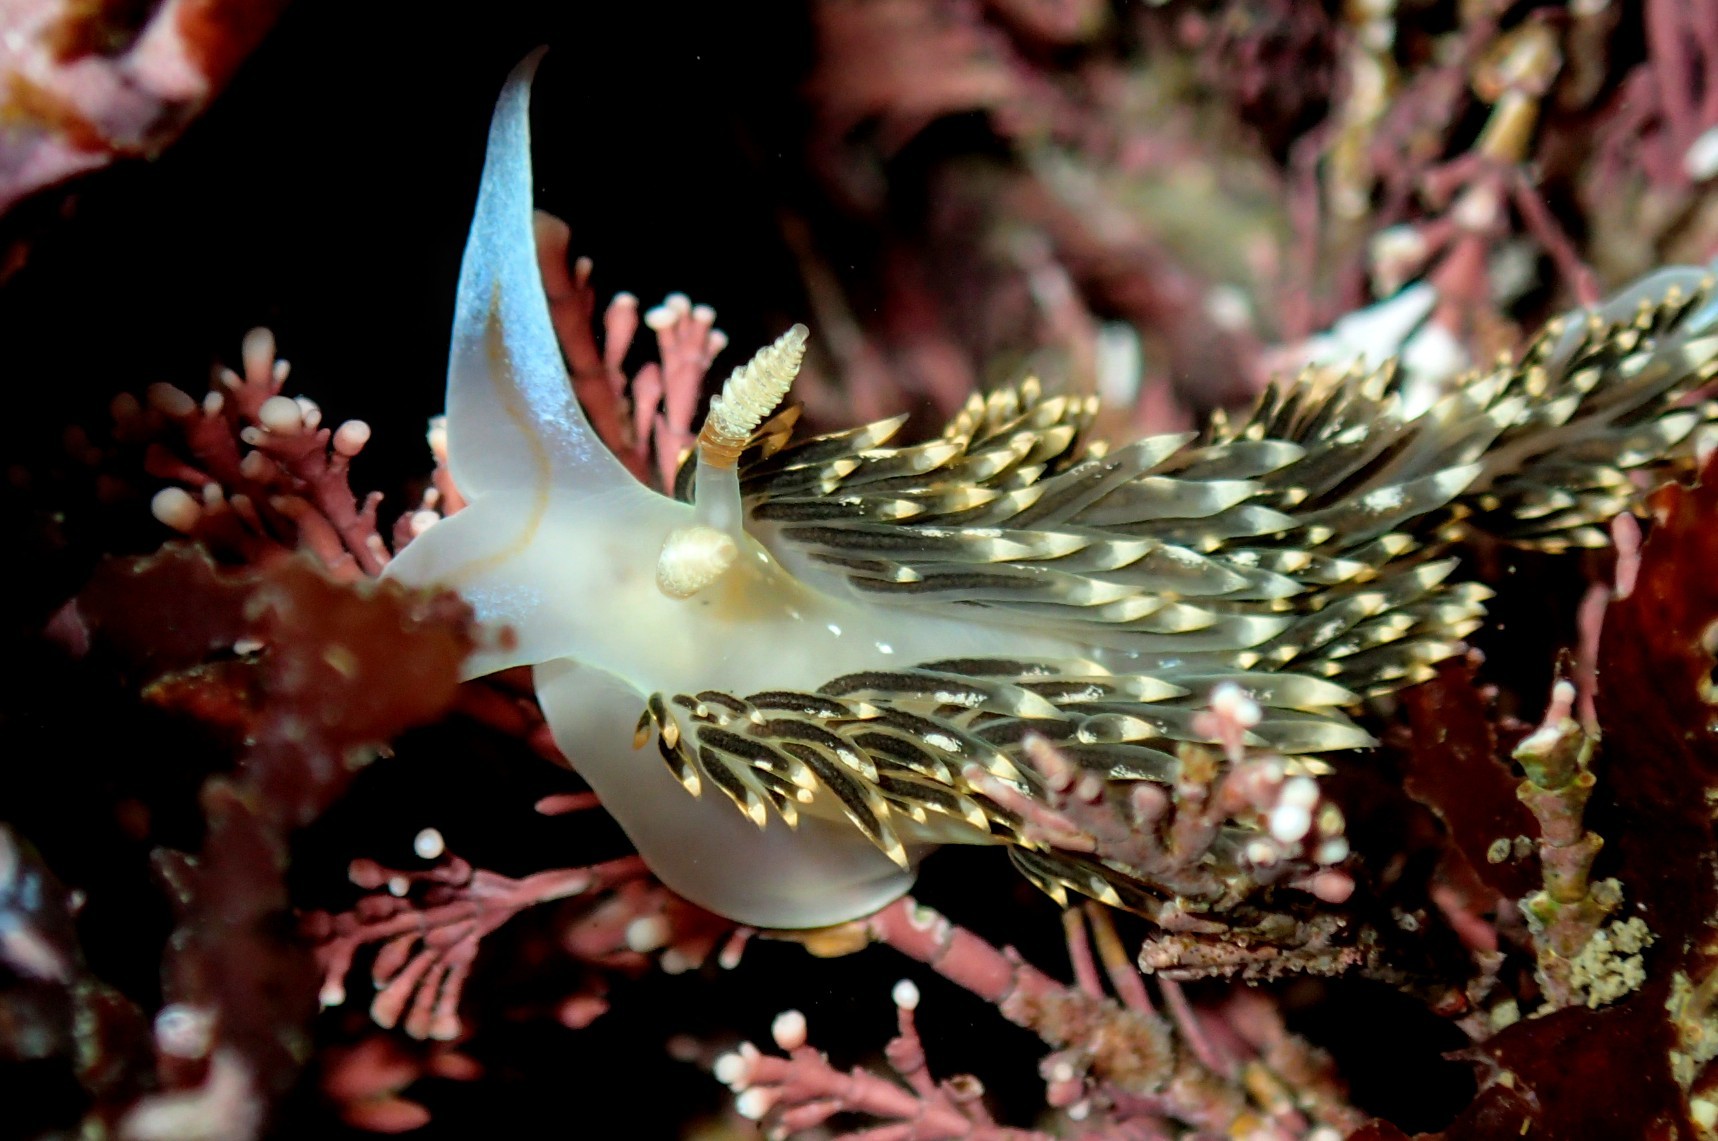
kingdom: Animalia
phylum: Mollusca
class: Gastropoda
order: Nudibranchia
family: Facelinidae
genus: Phidiana
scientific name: Phidiana hiltoni
